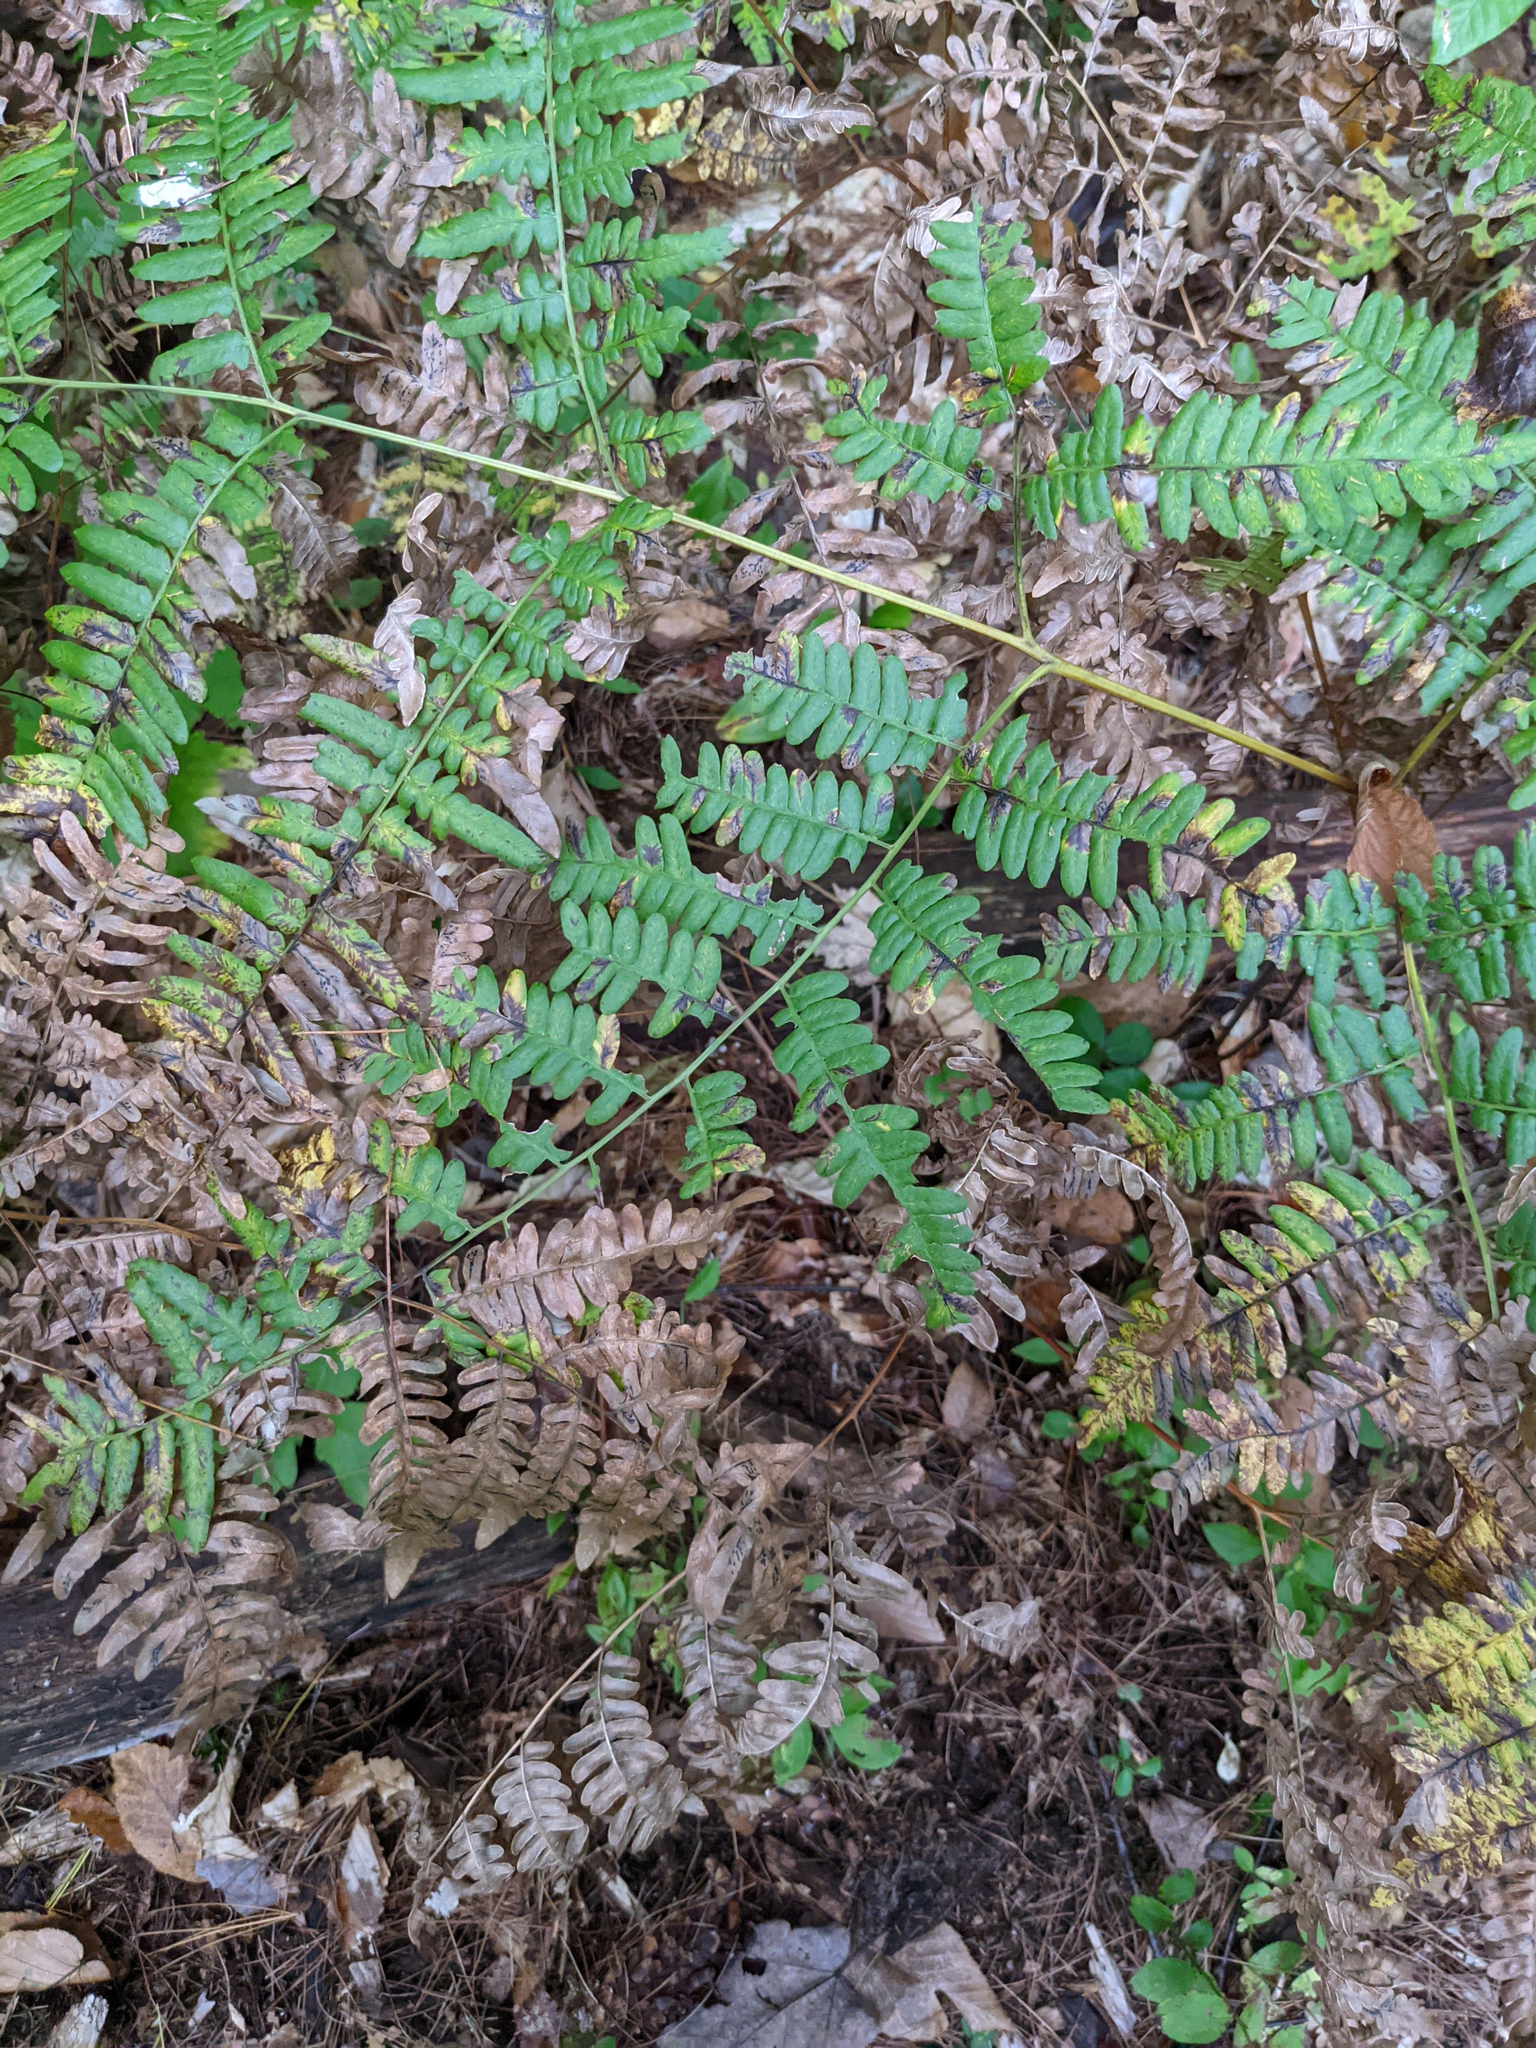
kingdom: Plantae
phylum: Tracheophyta
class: Polypodiopsida
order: Polypodiales
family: Dennstaedtiaceae
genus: Pteridium
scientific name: Pteridium aquilinum
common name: Bracken
